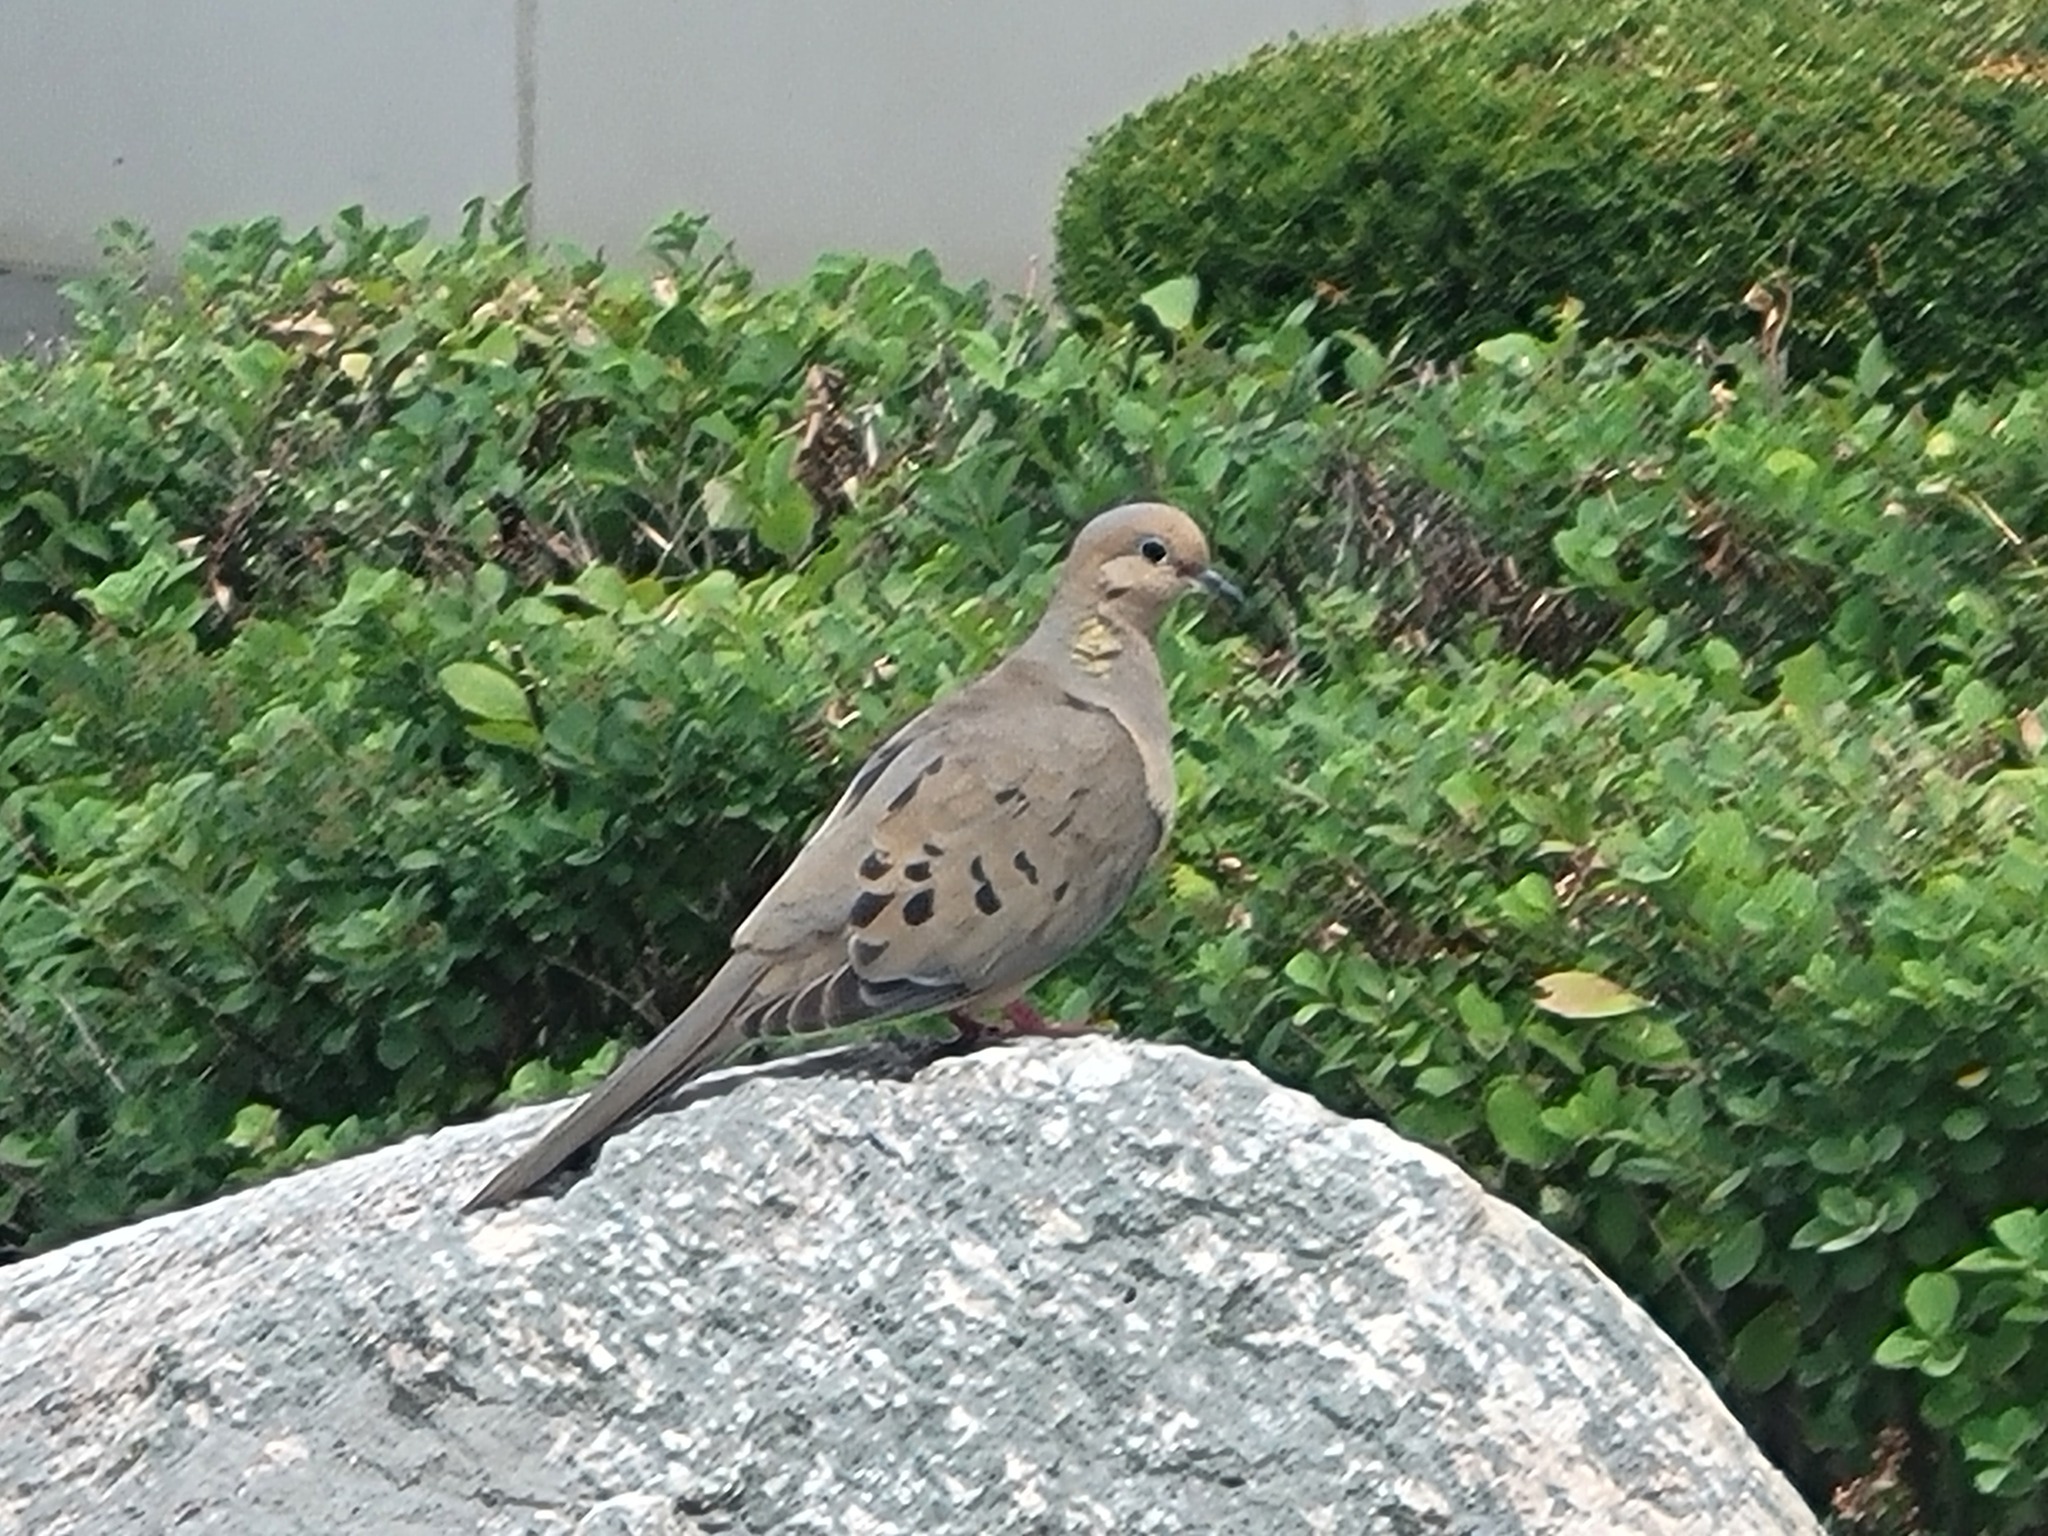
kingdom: Animalia
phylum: Chordata
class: Aves
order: Columbiformes
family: Columbidae
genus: Zenaida
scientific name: Zenaida macroura
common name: Mourning dove
